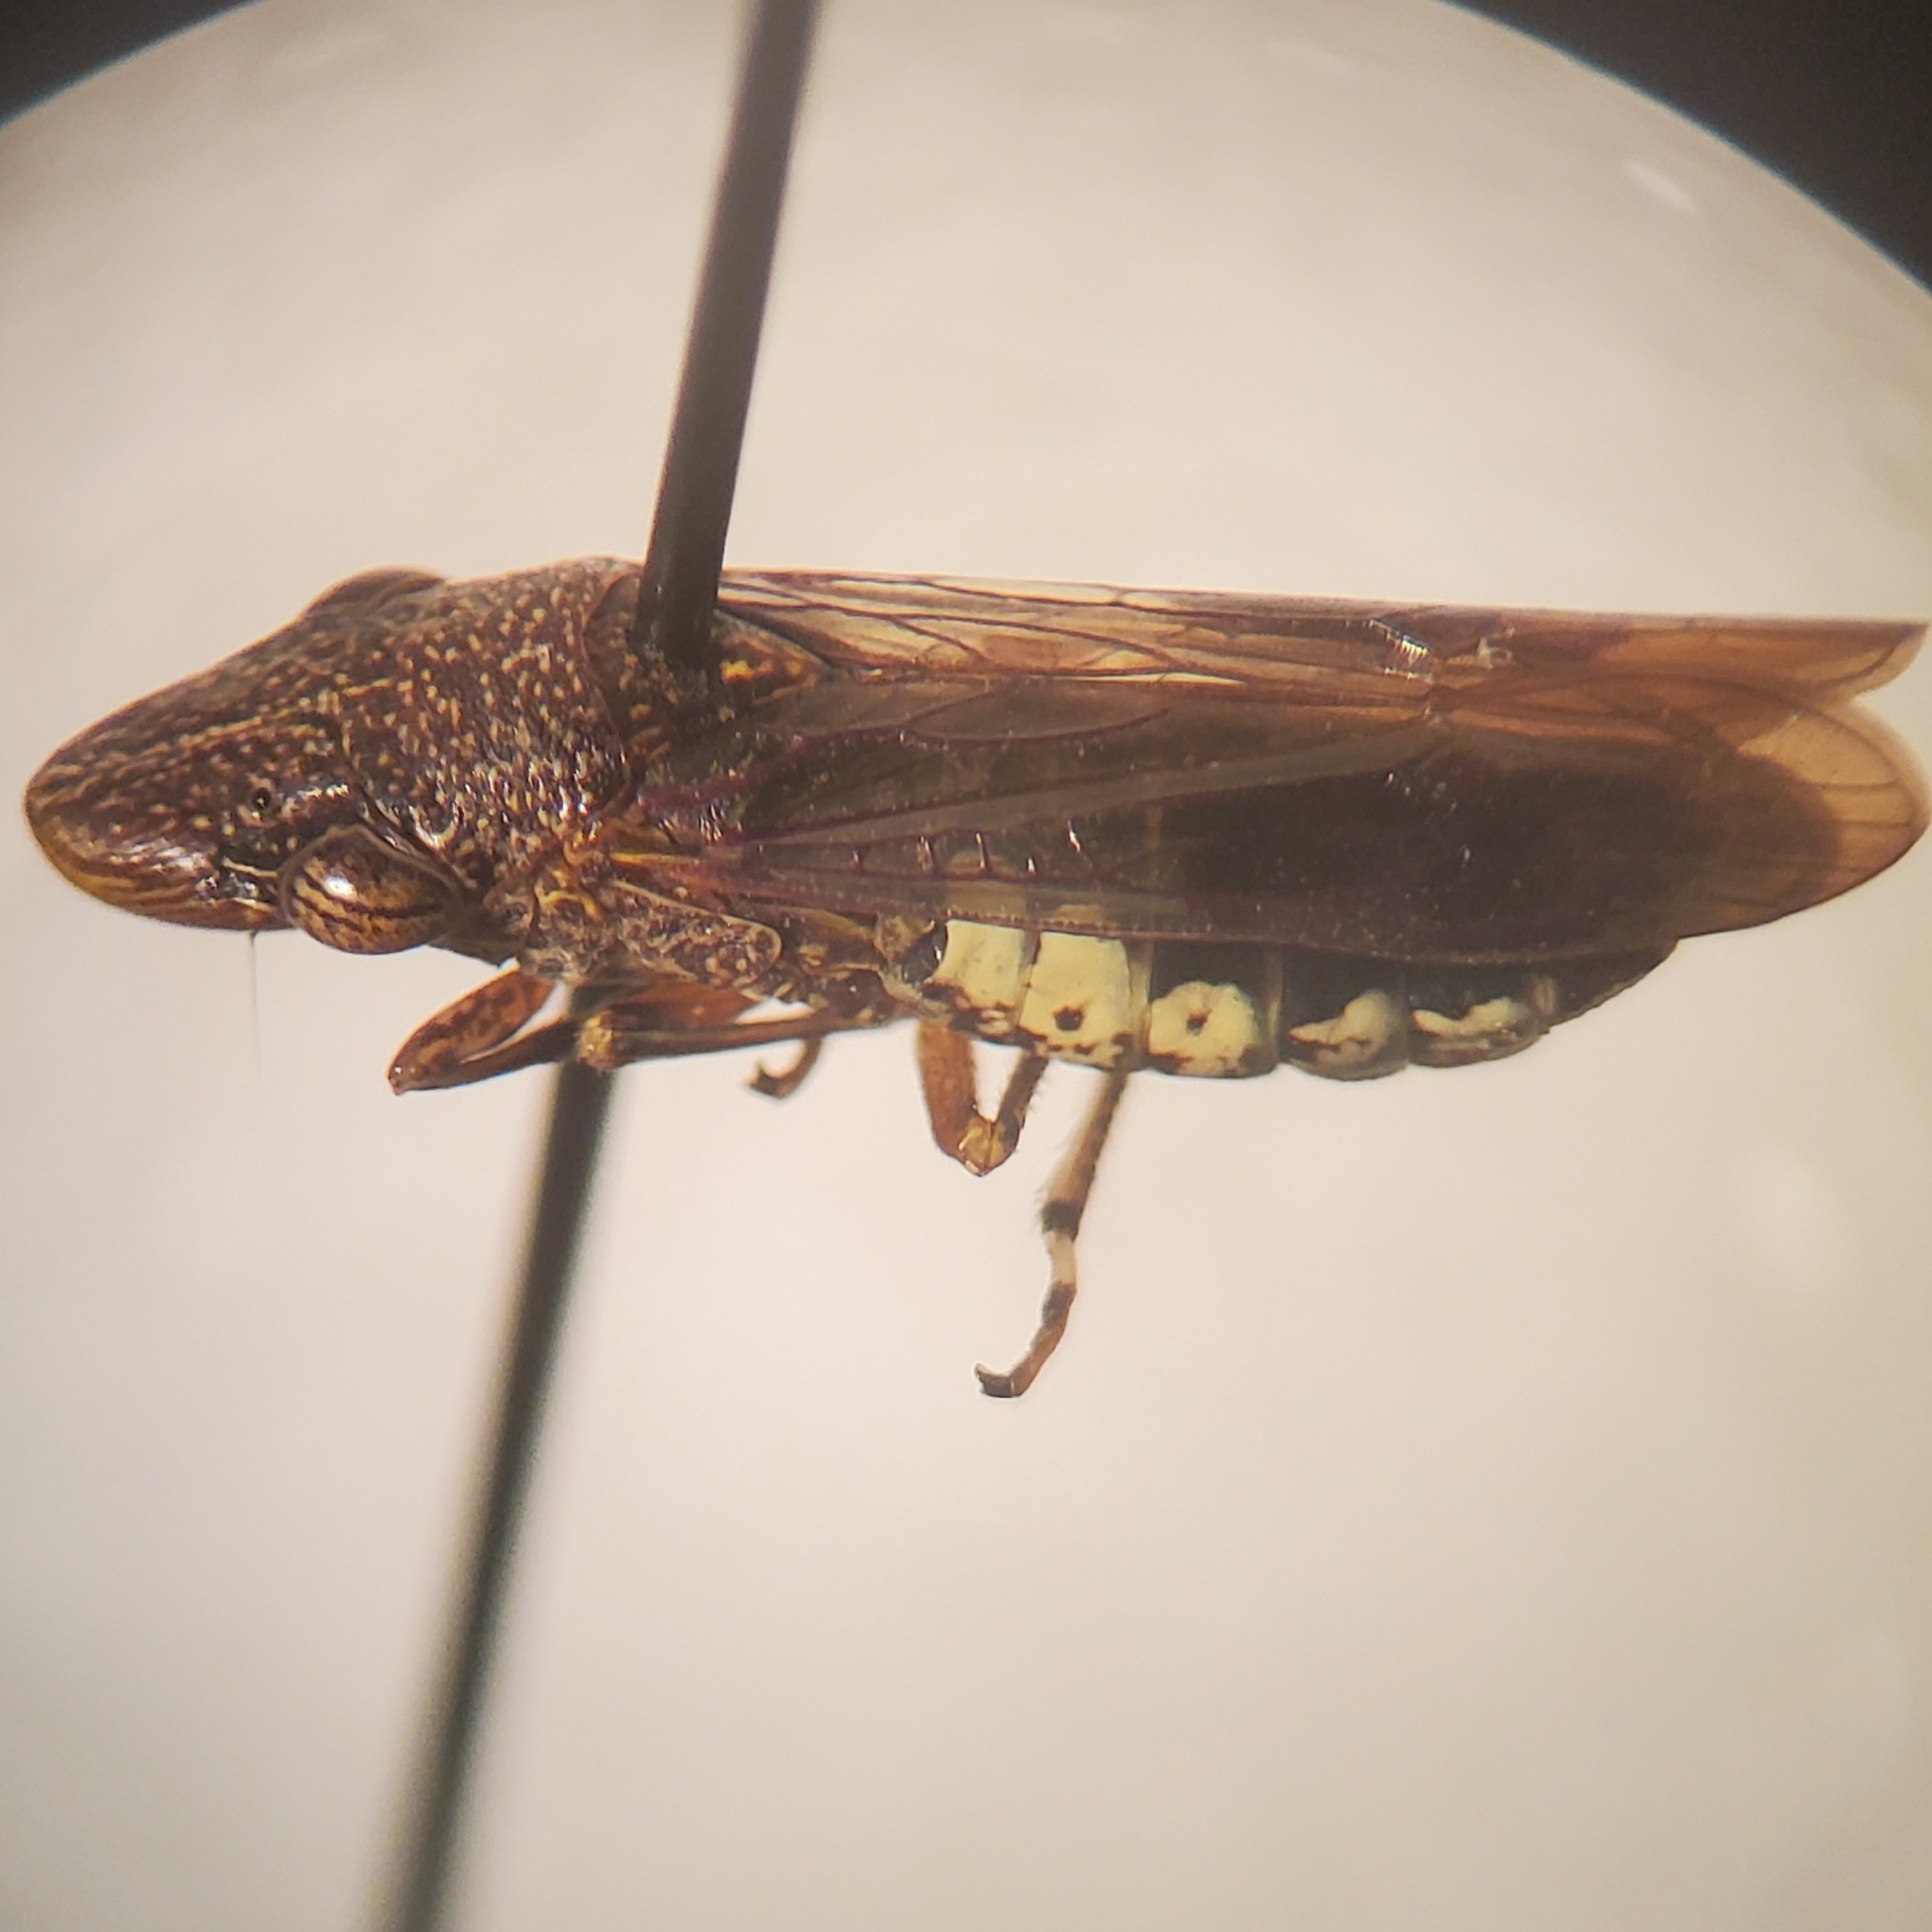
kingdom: Animalia
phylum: Arthropoda
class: Insecta
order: Hemiptera
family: Cicadellidae
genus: Homalodisca
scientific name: Homalodisca vitripennis
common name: Glassy-winged sharpshooter
